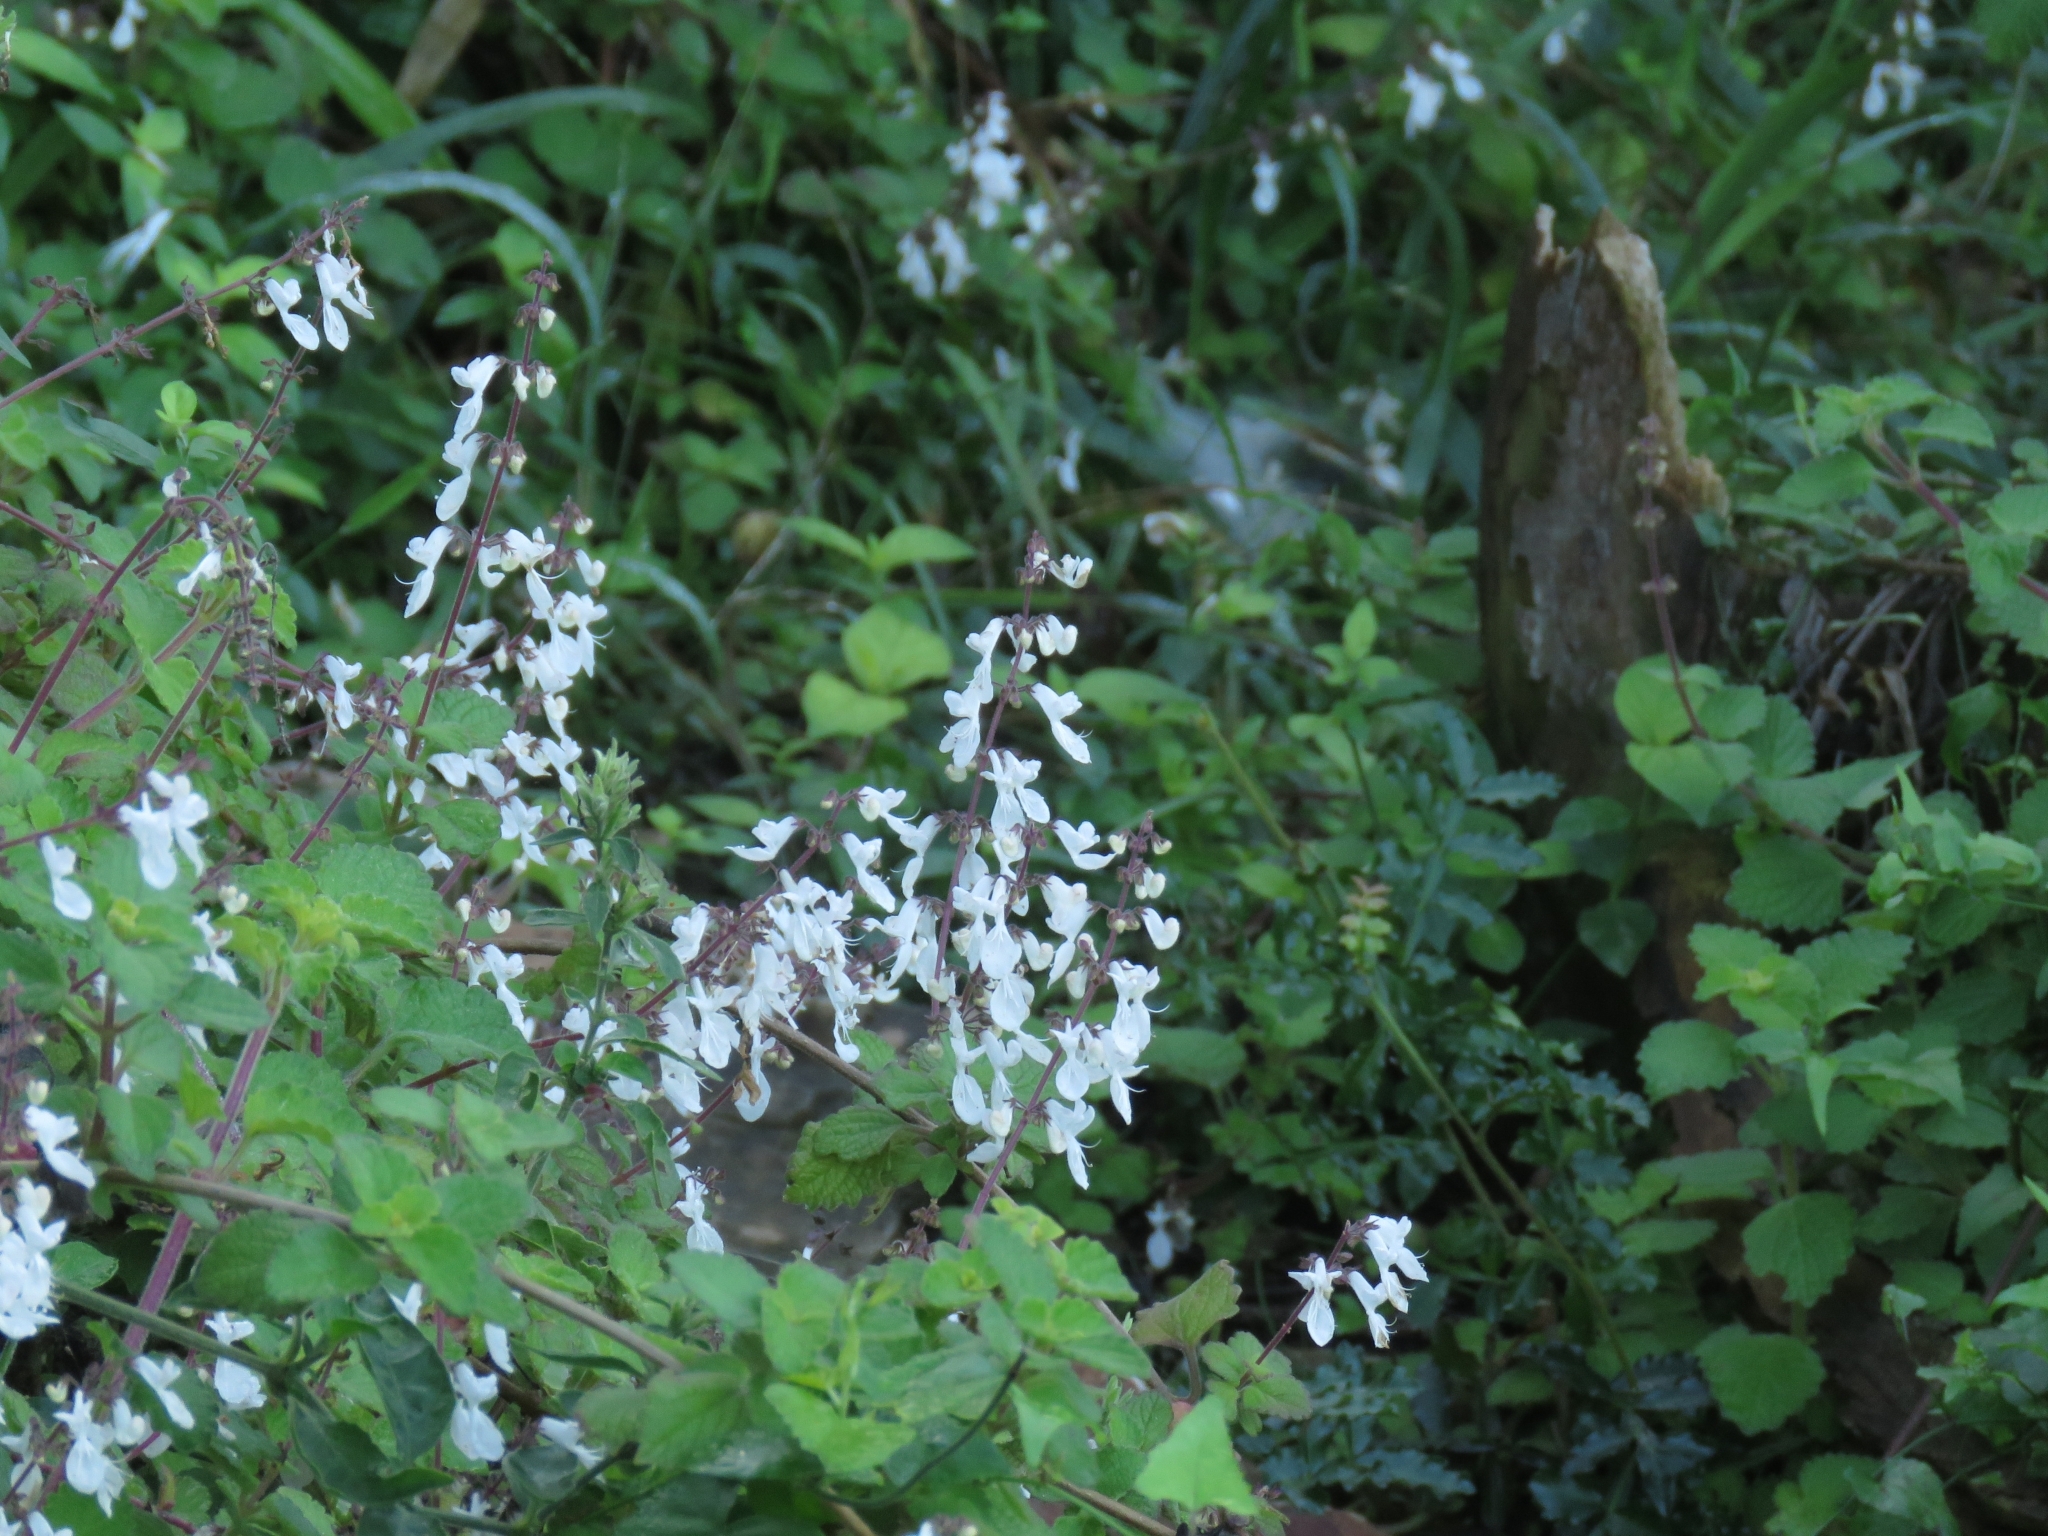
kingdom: Plantae
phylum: Tracheophyta
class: Magnoliopsida
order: Lamiales
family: Lamiaceae
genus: Coleus
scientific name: Coleus madagascariensis
